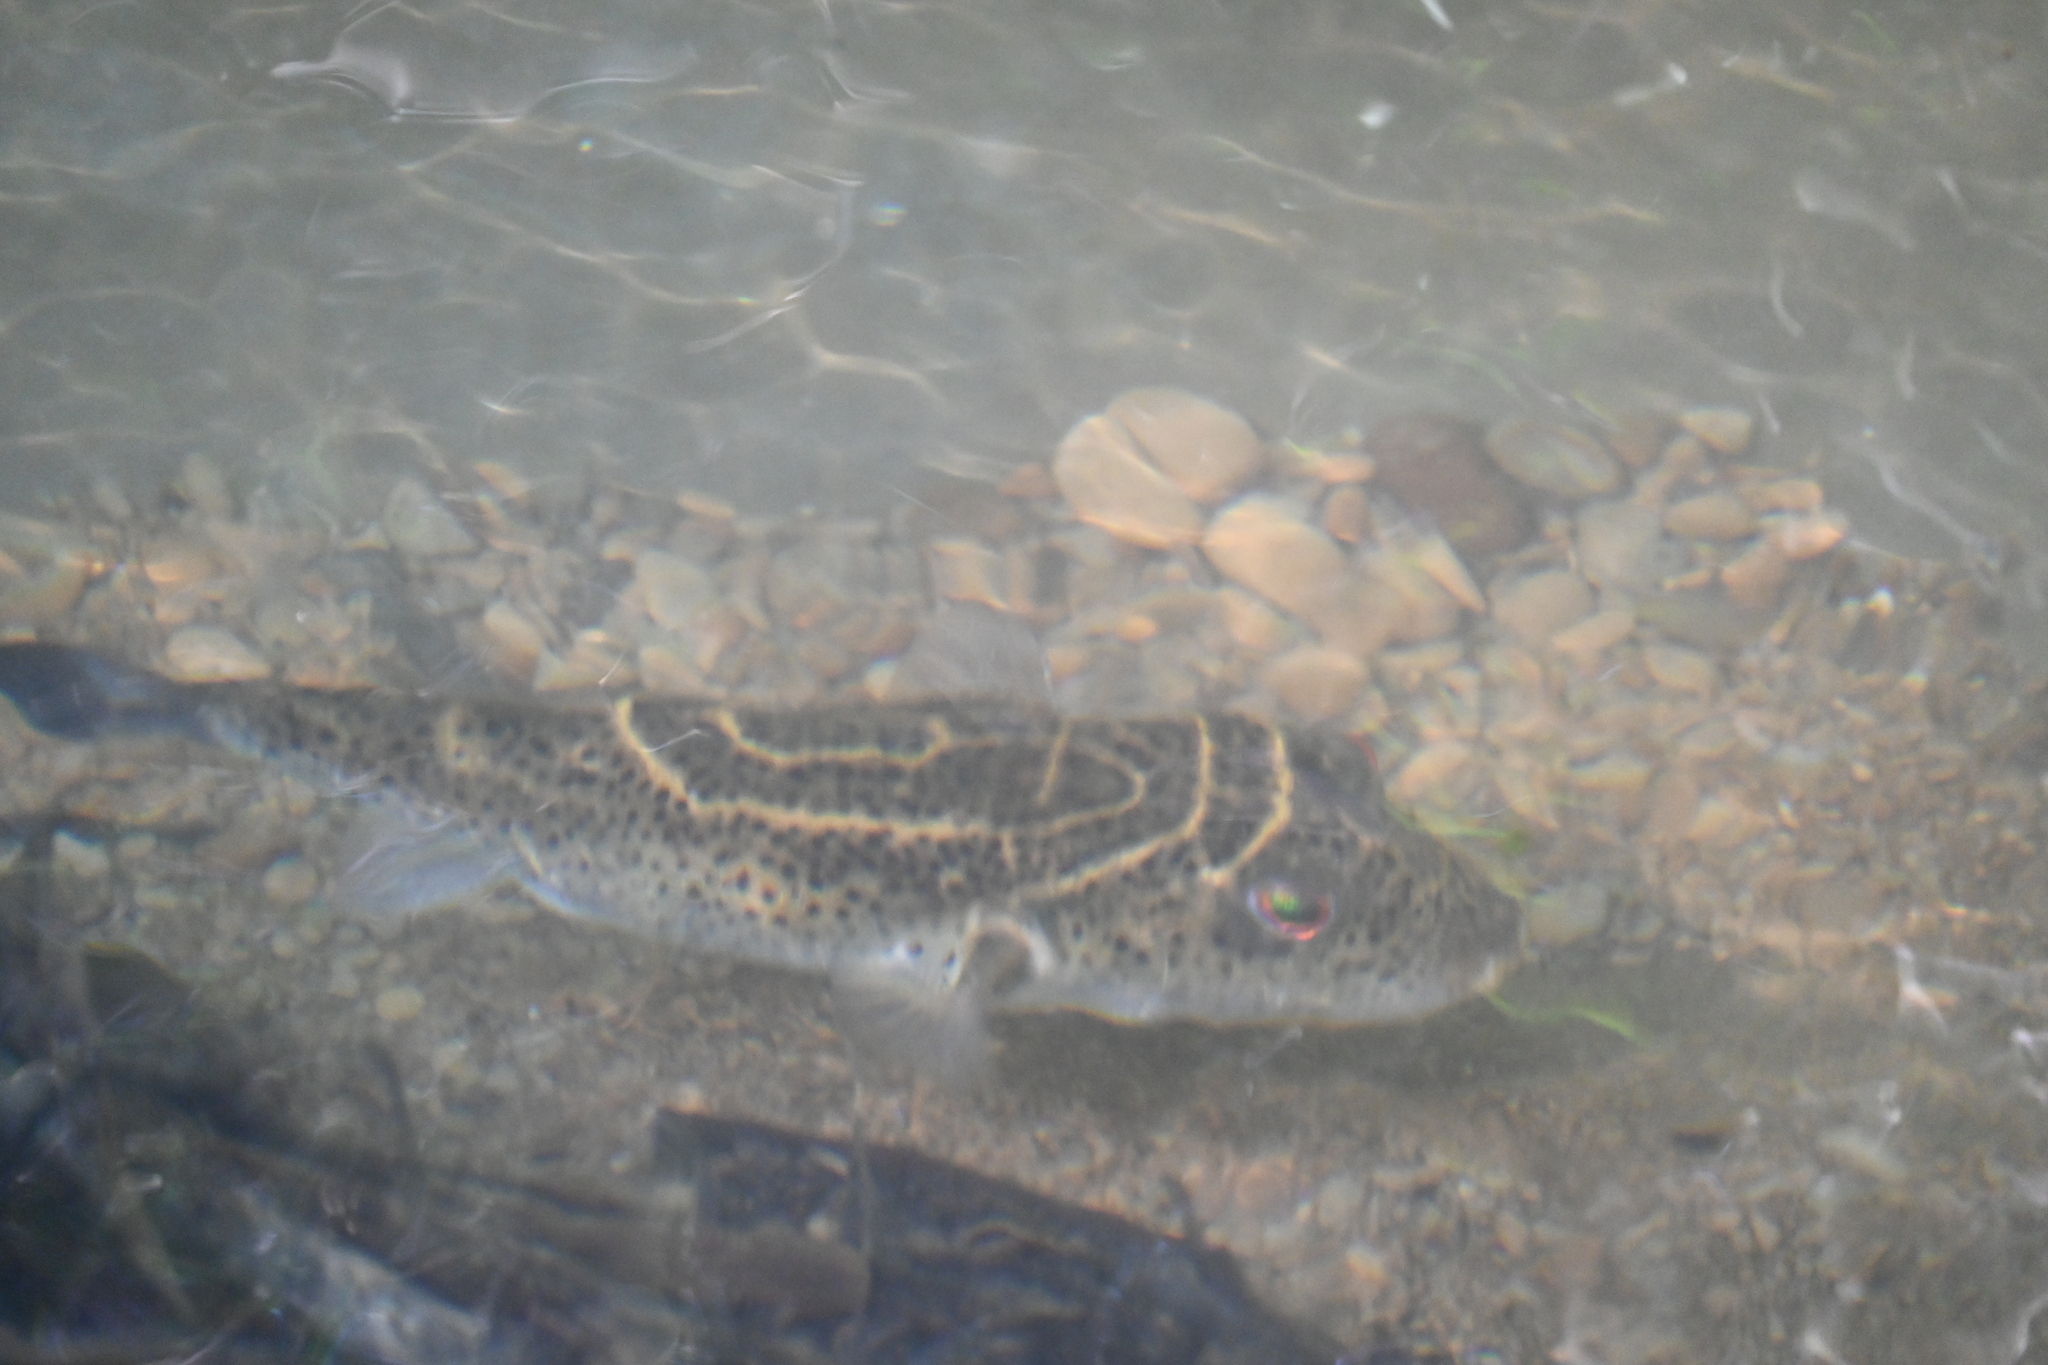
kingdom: Animalia
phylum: Chordata
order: Tetraodontiformes
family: Tetraodontidae
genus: Sphoeroides
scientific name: Sphoeroides rosenblatti
